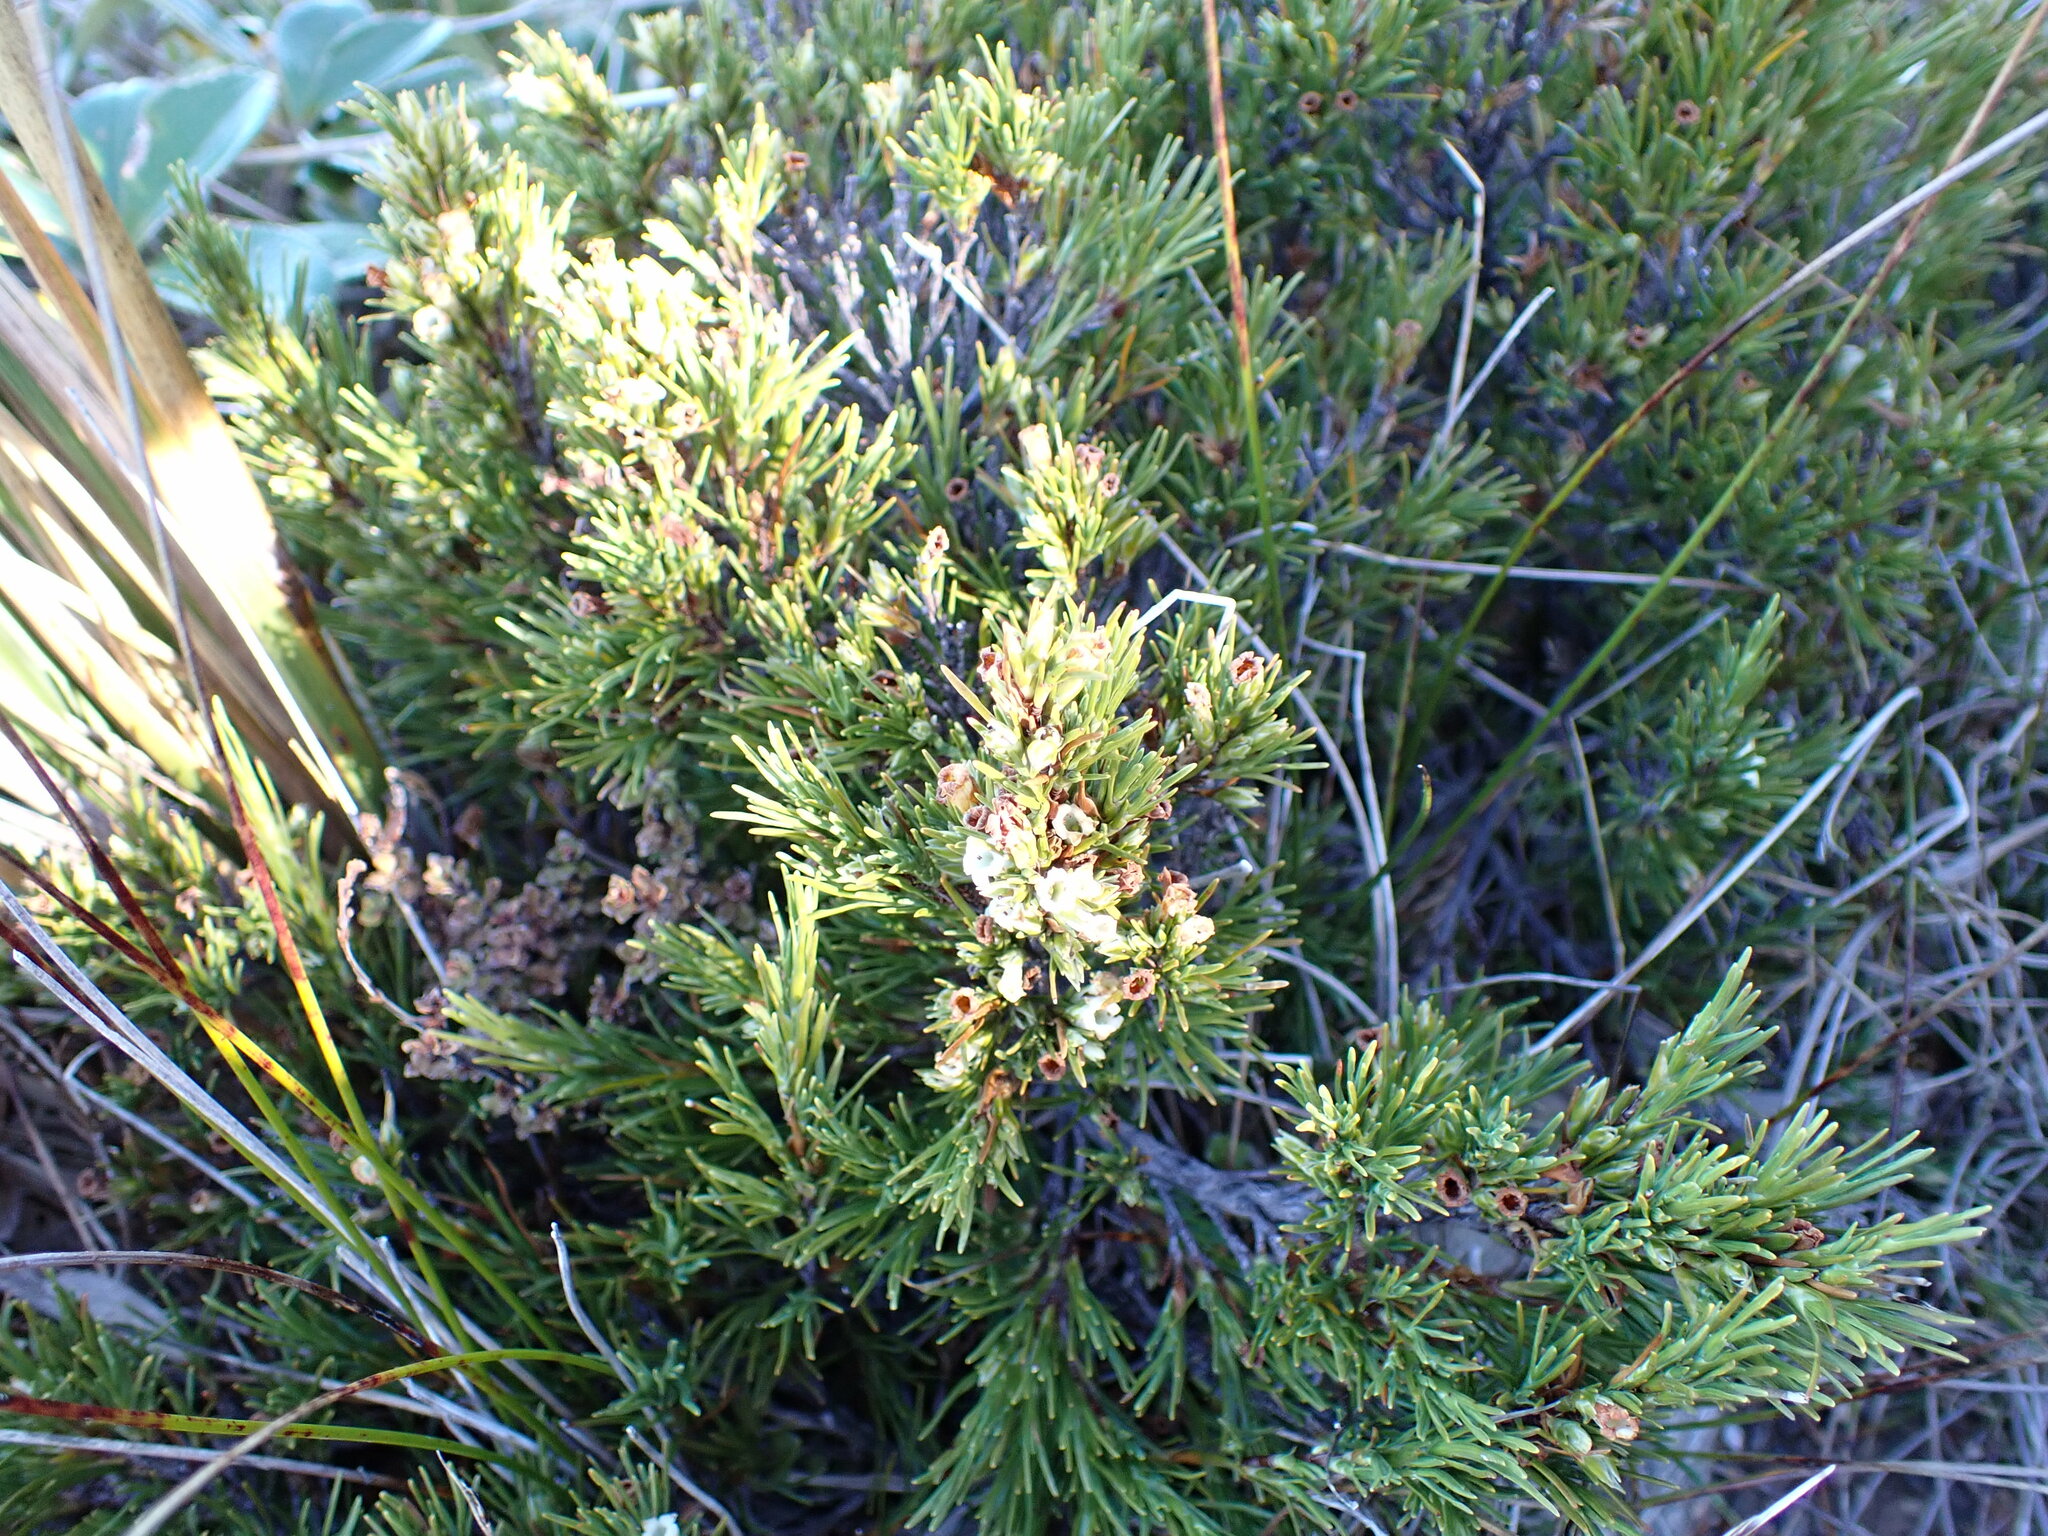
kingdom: Plantae
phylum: Tracheophyta
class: Magnoliopsida
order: Ericales
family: Ericaceae
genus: Dracophyllum
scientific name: Dracophyllum rosmarinifolium
